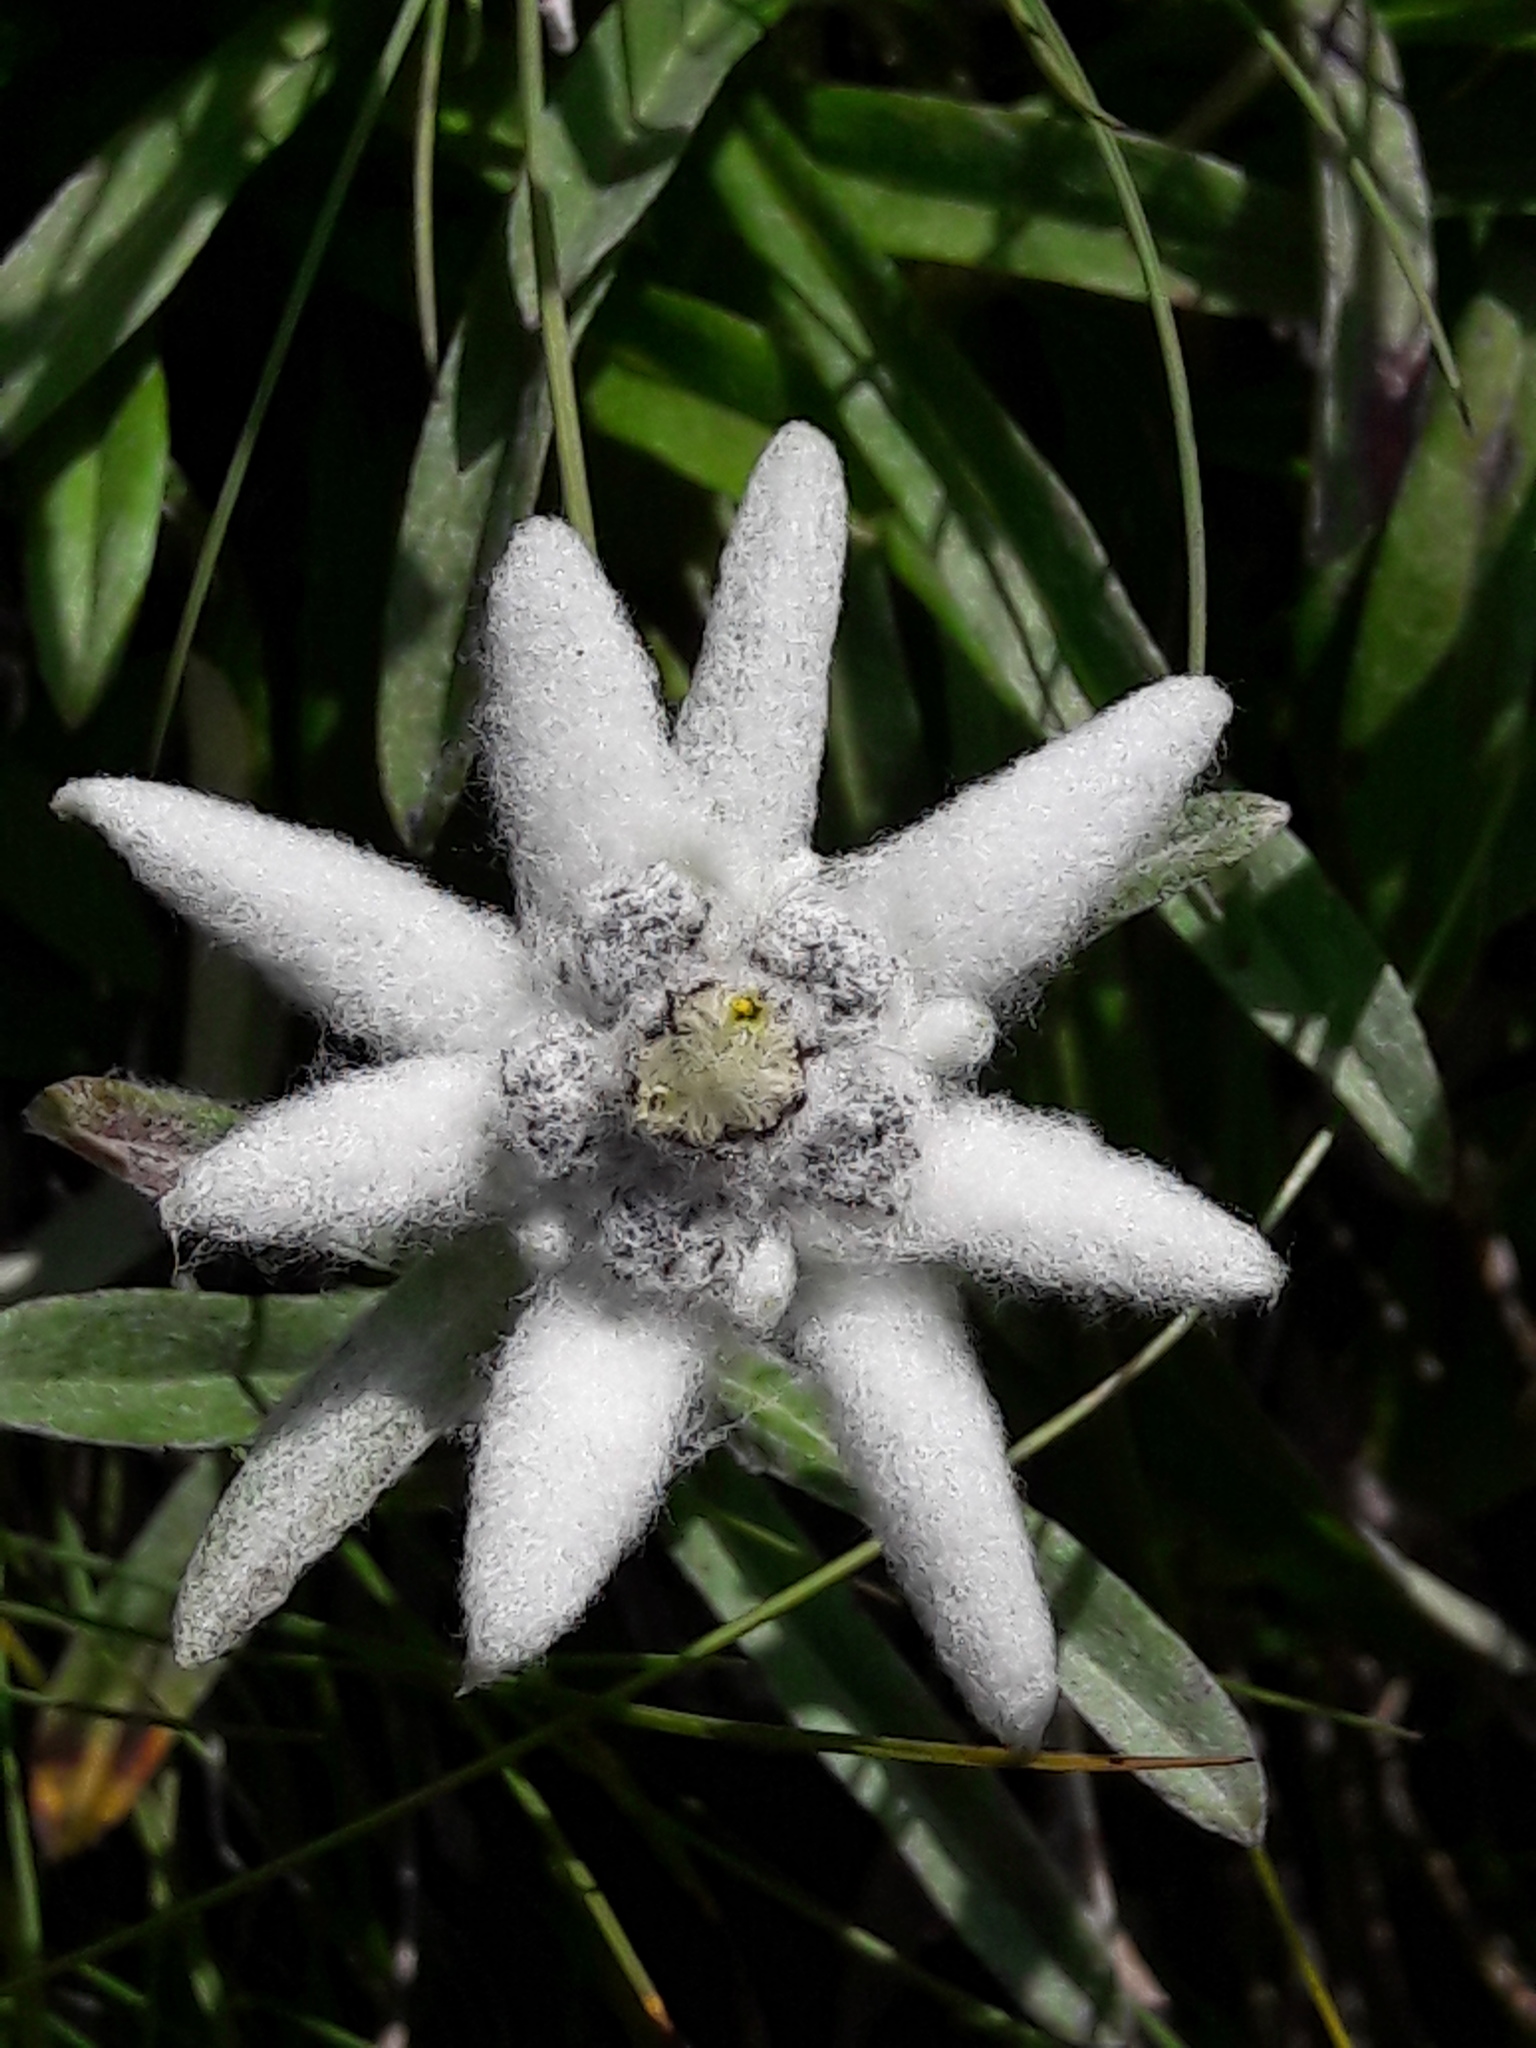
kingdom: Plantae
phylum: Tracheophyta
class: Magnoliopsida
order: Asterales
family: Asteraceae
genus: Leontopodium
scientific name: Leontopodium nivale
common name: Edelweiss
